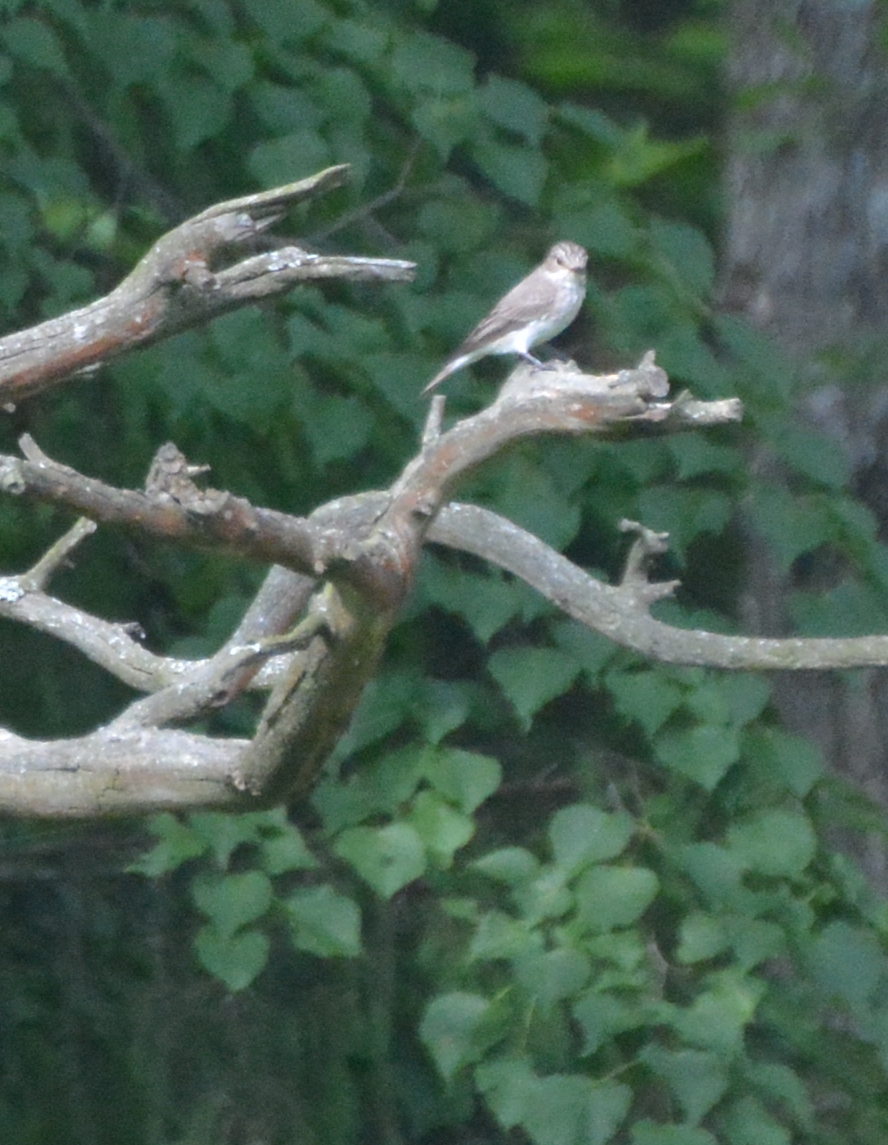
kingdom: Animalia
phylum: Chordata
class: Aves
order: Passeriformes
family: Muscicapidae
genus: Muscicapa
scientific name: Muscicapa striata
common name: Spotted flycatcher
